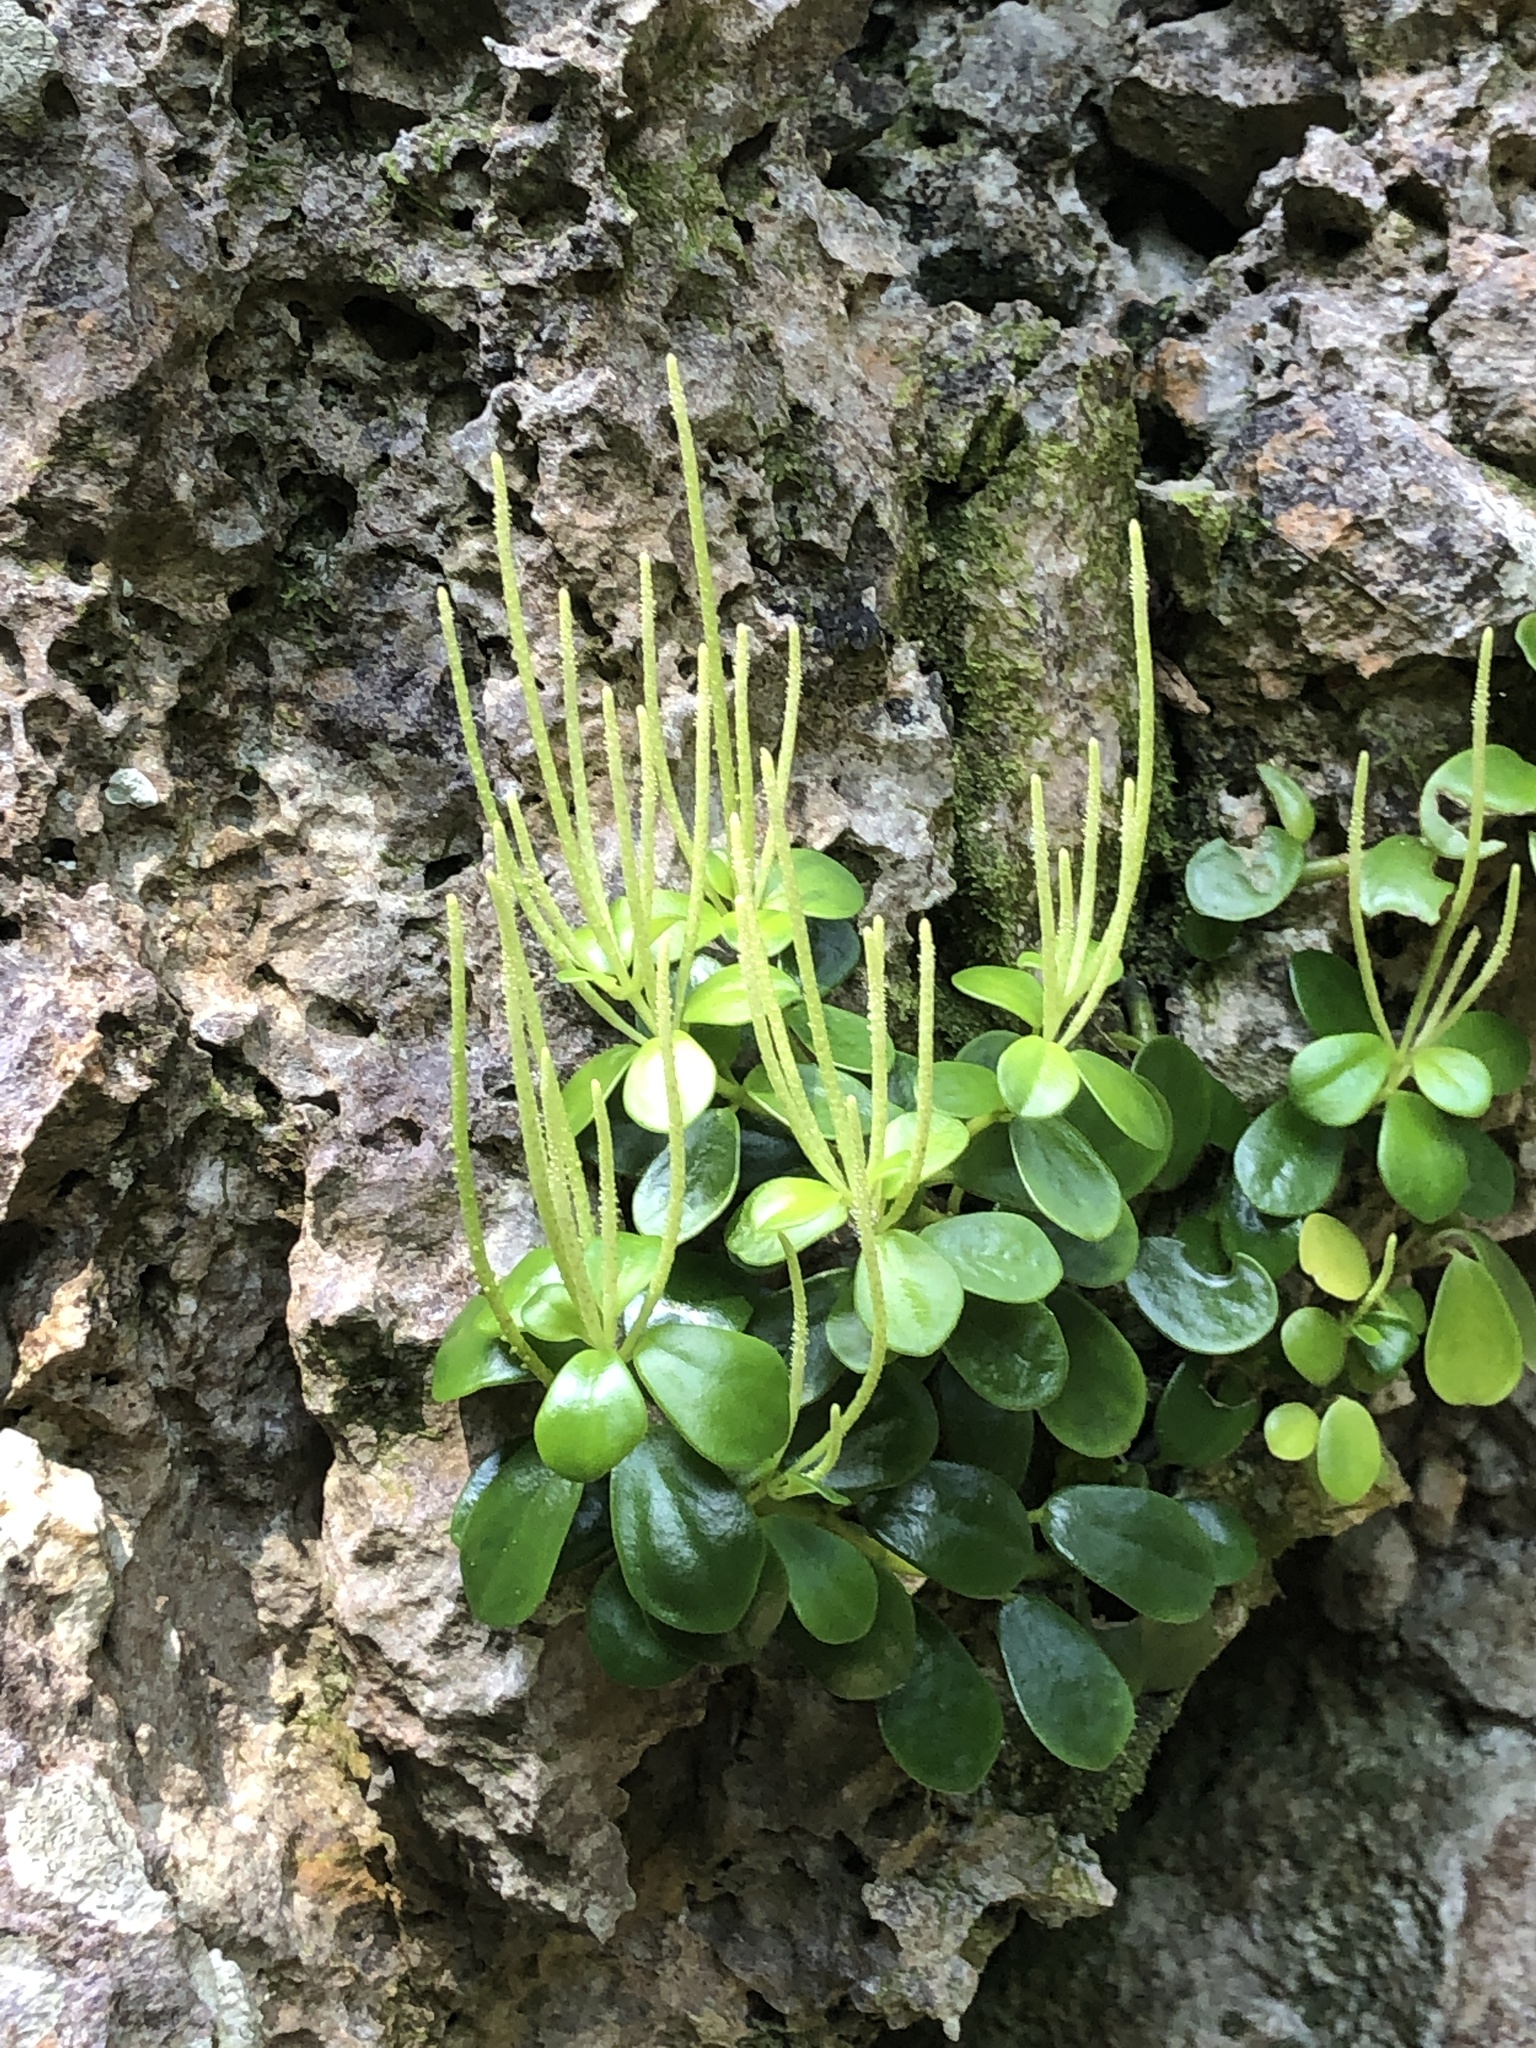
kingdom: Plantae
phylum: Tracheophyta
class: Magnoliopsida
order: Piperales
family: Piperaceae
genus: Peperomia
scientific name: Peperomia japonica
